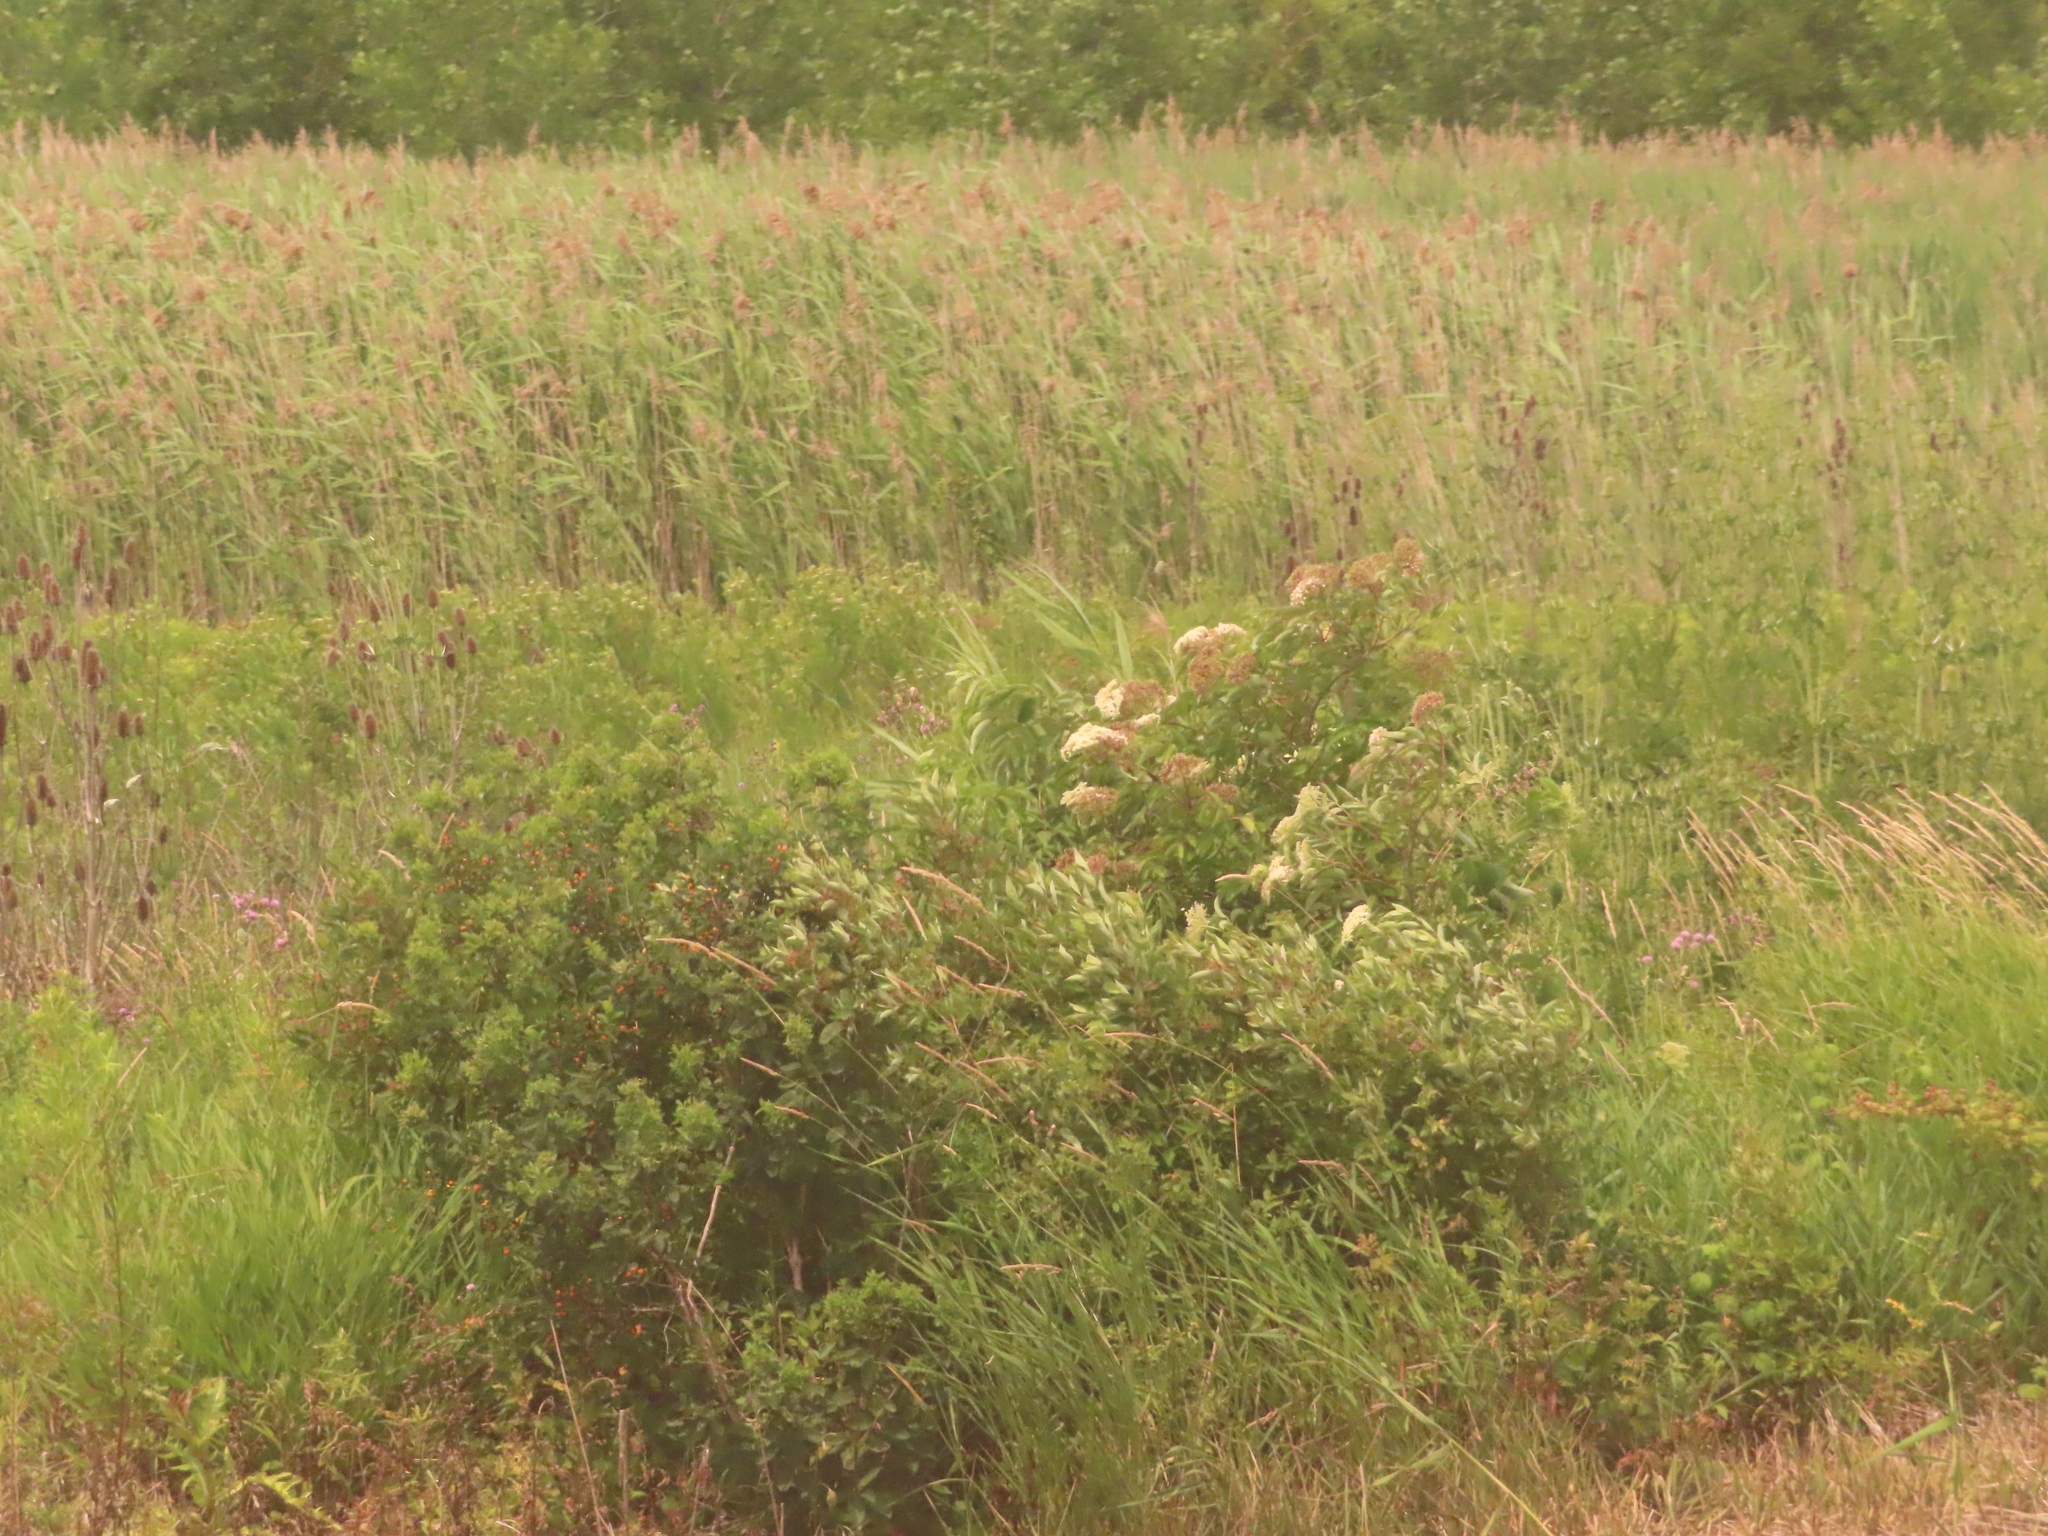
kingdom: Plantae
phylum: Tracheophyta
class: Liliopsida
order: Poales
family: Poaceae
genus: Phragmites
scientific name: Phragmites australis
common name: Common reed
